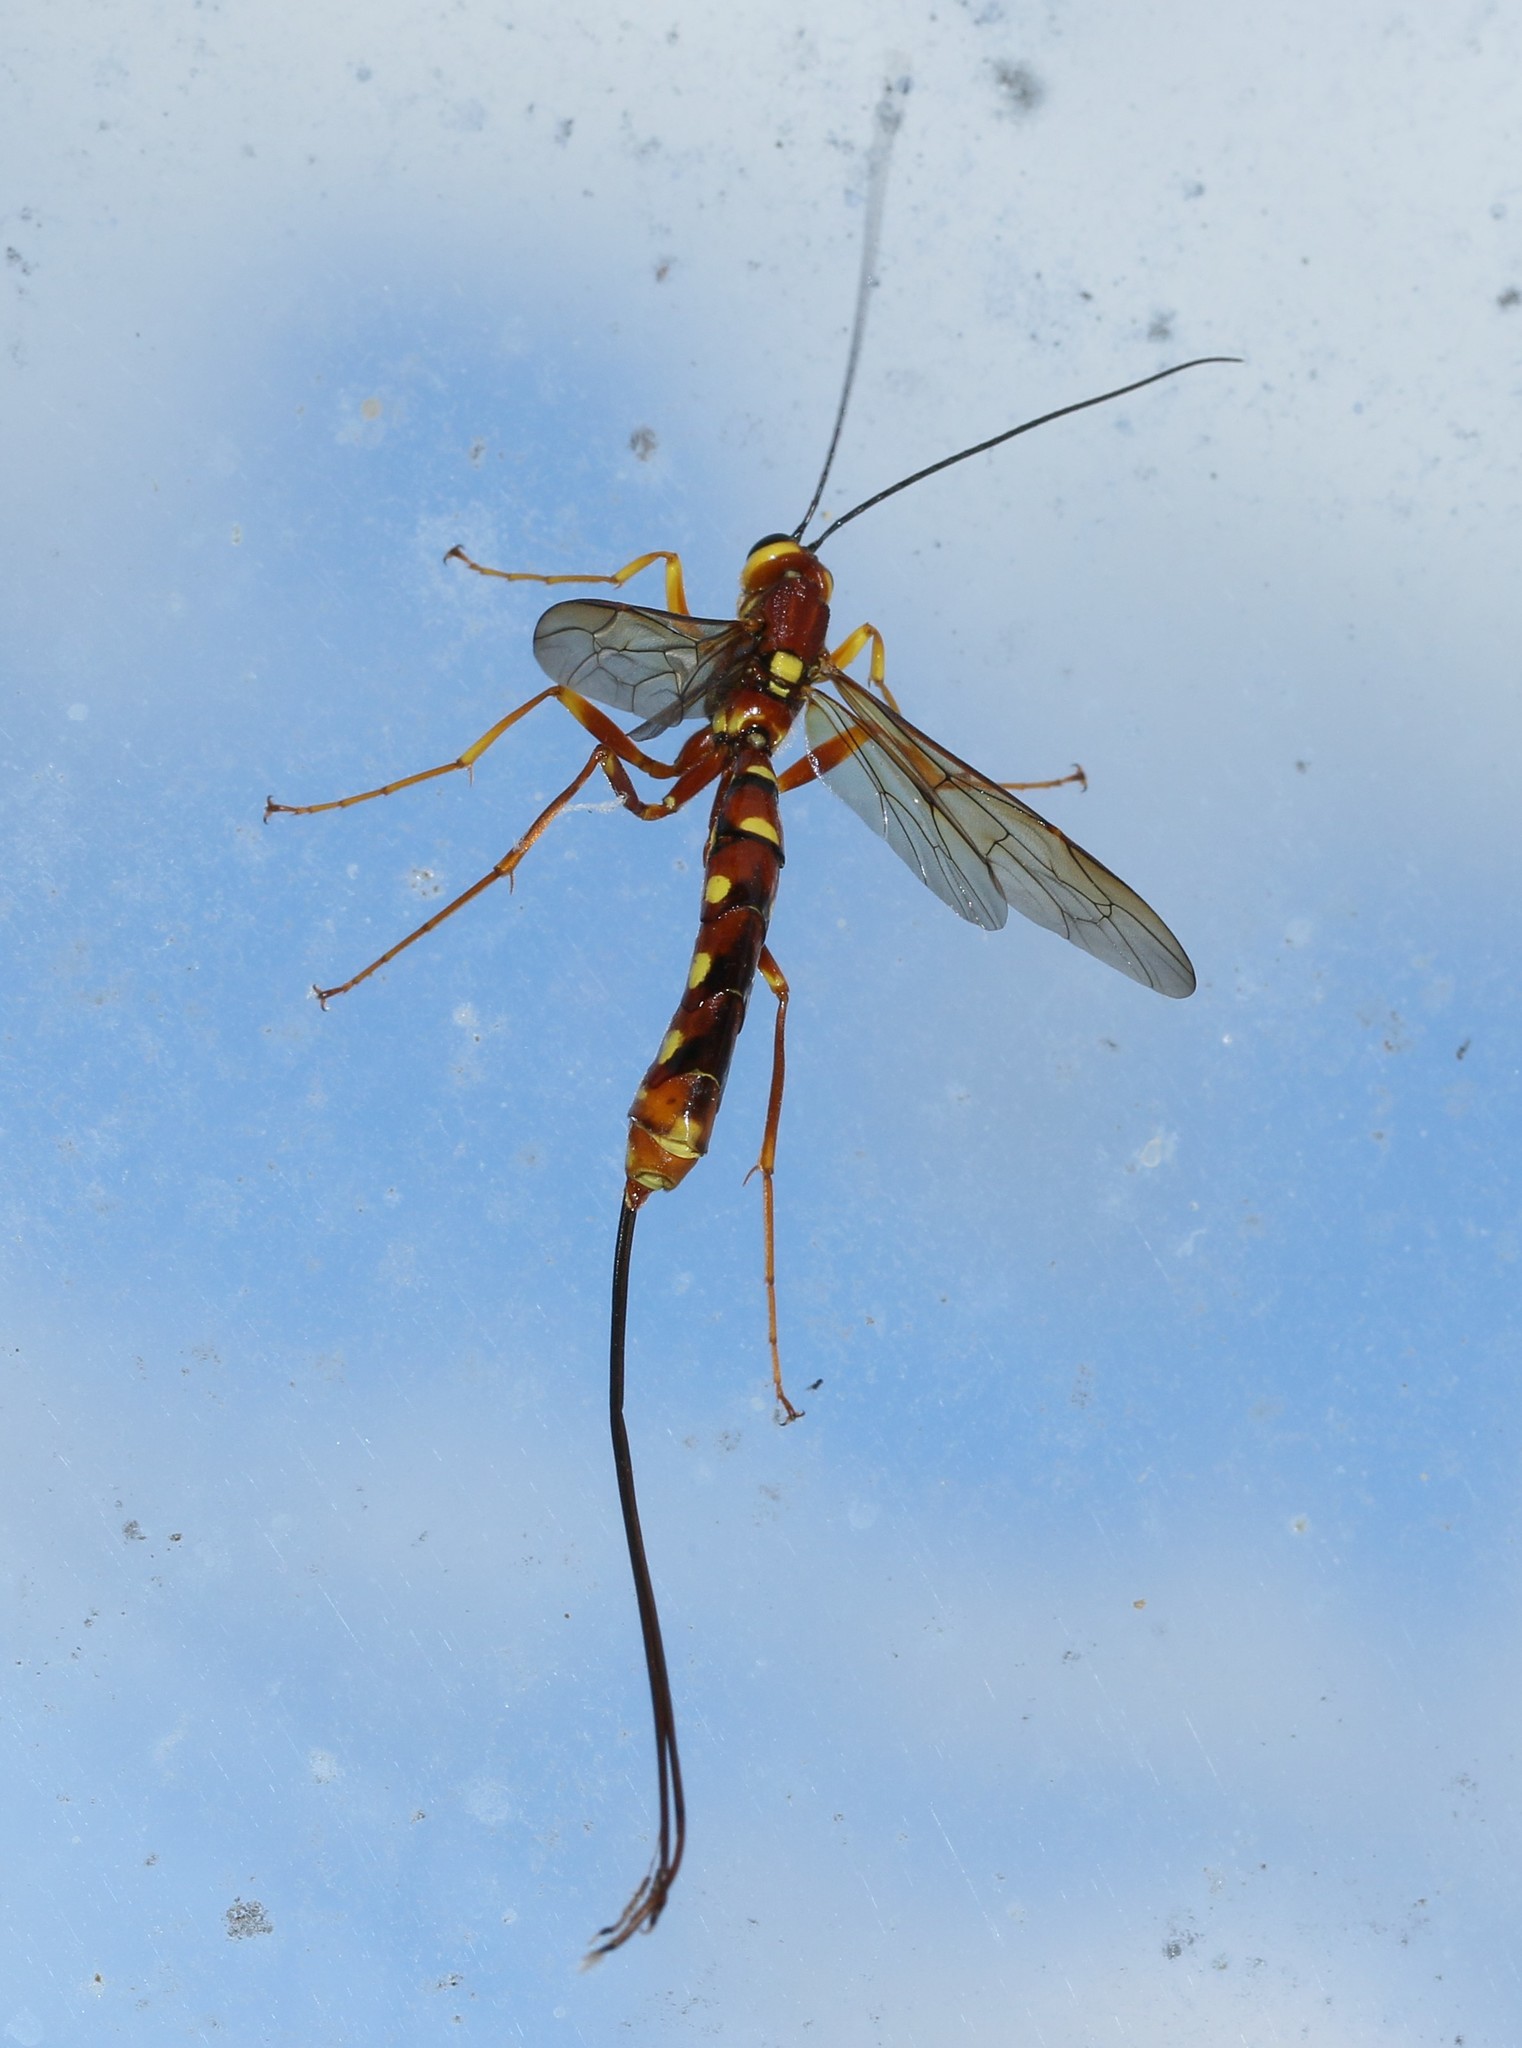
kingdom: Animalia
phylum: Arthropoda
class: Insecta
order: Hymenoptera
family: Ichneumonidae
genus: Megarhyssa
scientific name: Megarhyssa nortoni
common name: Norton's giant ichneumonid wasp
